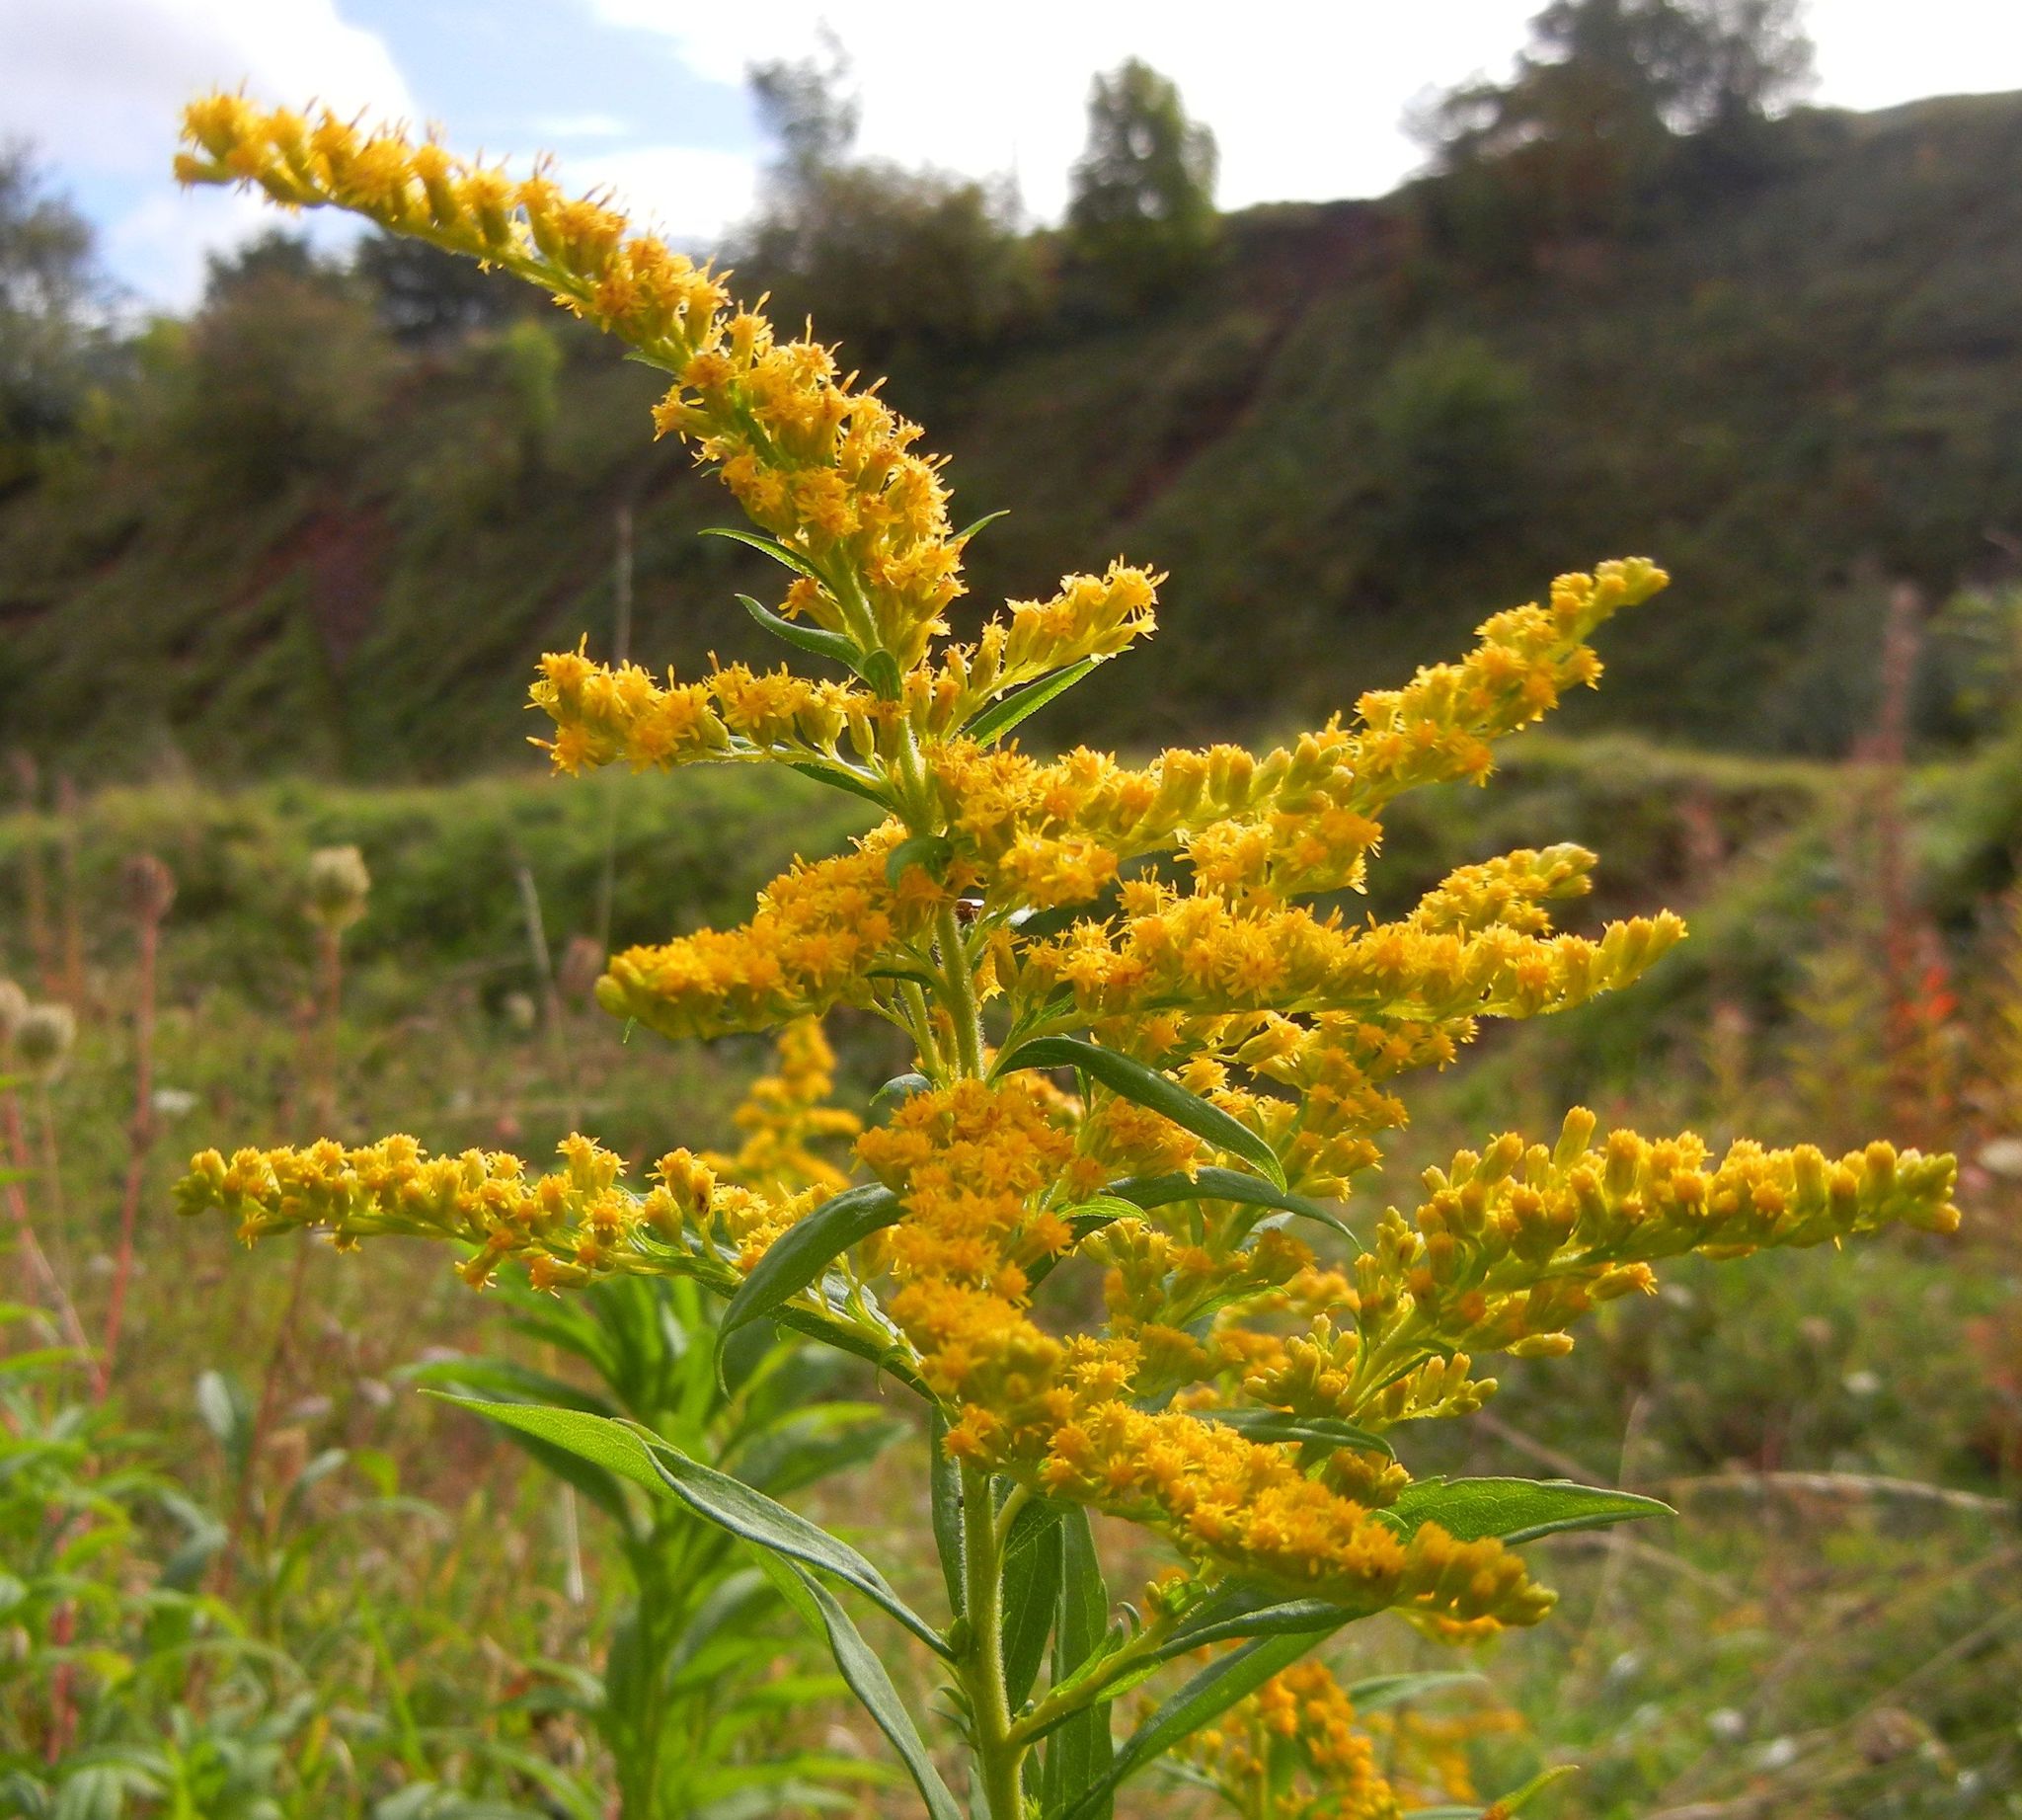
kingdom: Plantae
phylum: Tracheophyta
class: Magnoliopsida
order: Asterales
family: Asteraceae
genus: Solidago
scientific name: Solidago canadensis
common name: Canada goldenrod
